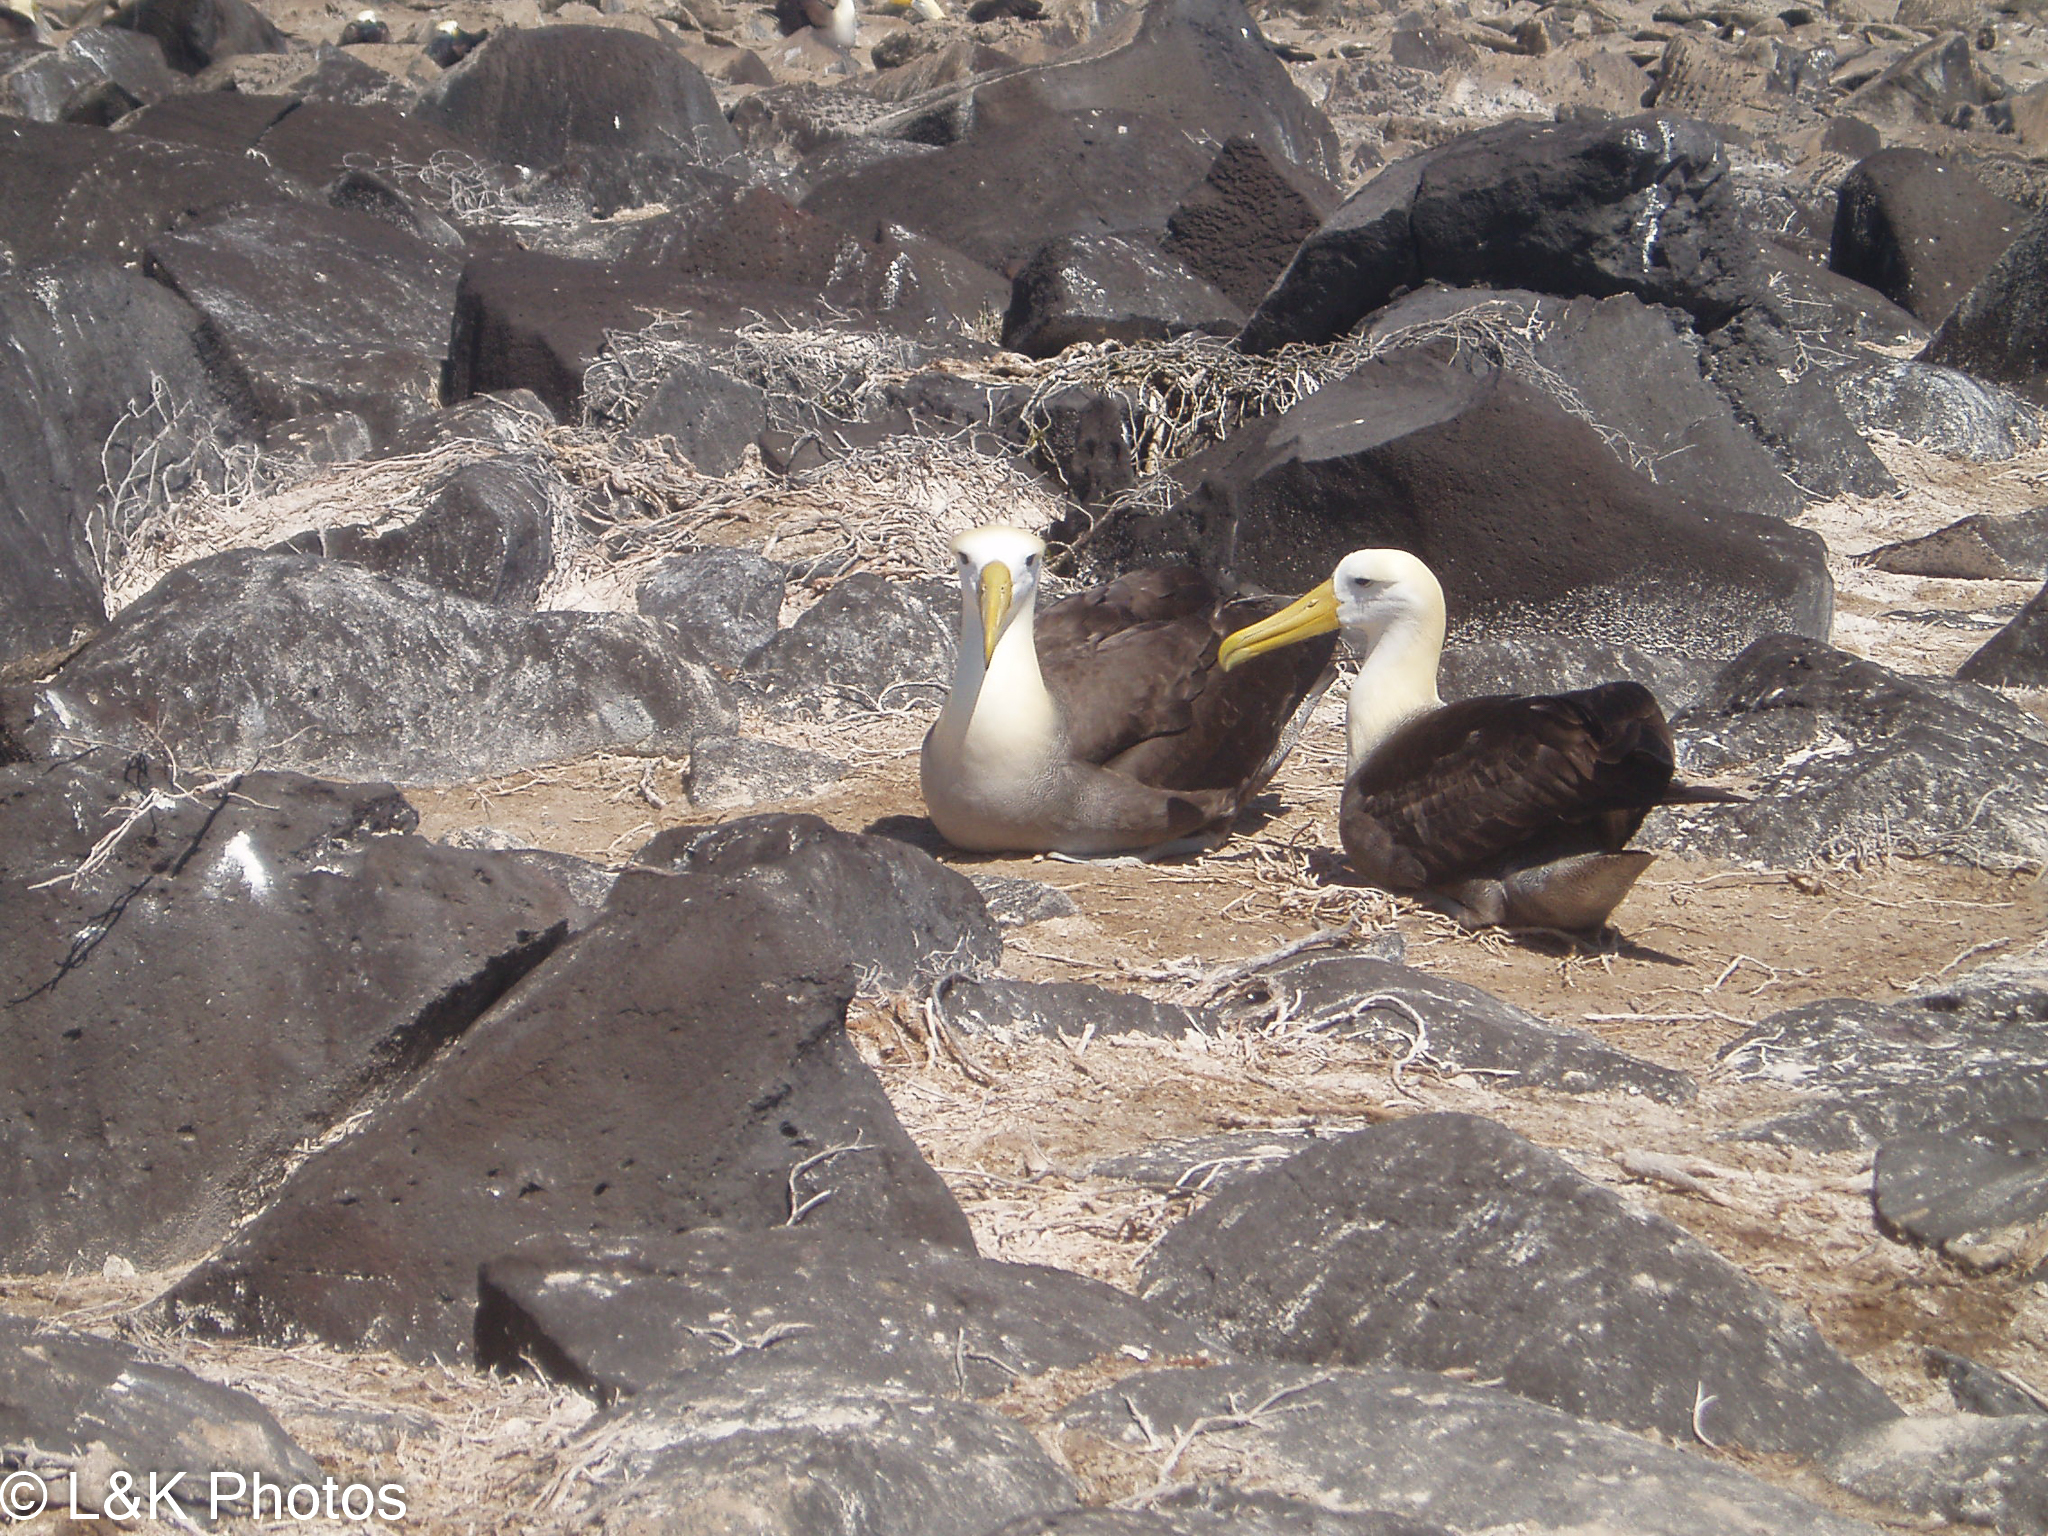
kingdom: Animalia
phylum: Chordata
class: Aves
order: Procellariiformes
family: Diomedeidae
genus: Phoebastria
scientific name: Phoebastria irrorata
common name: Waved albatross
